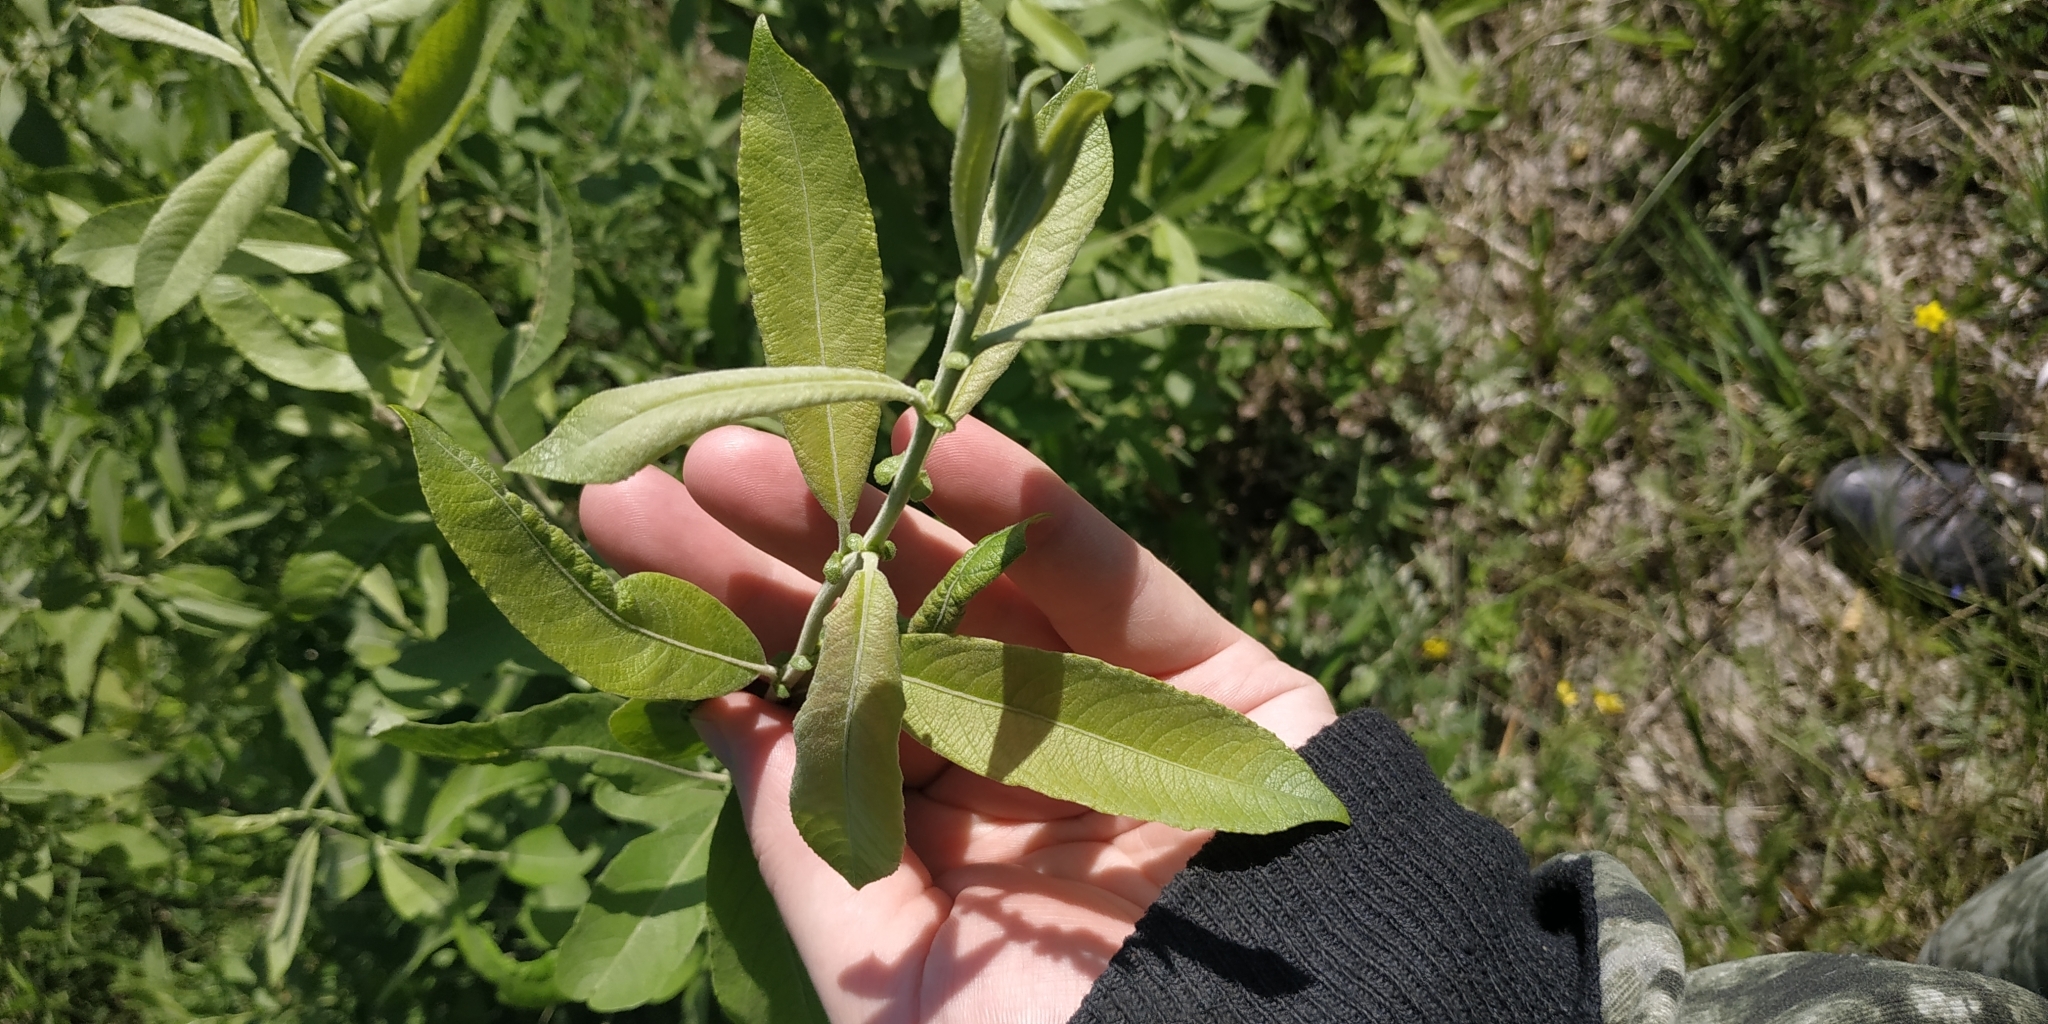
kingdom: Plantae
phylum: Tracheophyta
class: Magnoliopsida
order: Malpighiales
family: Salicaceae
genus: Salix
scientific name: Salix cinerea
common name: Common sallow
